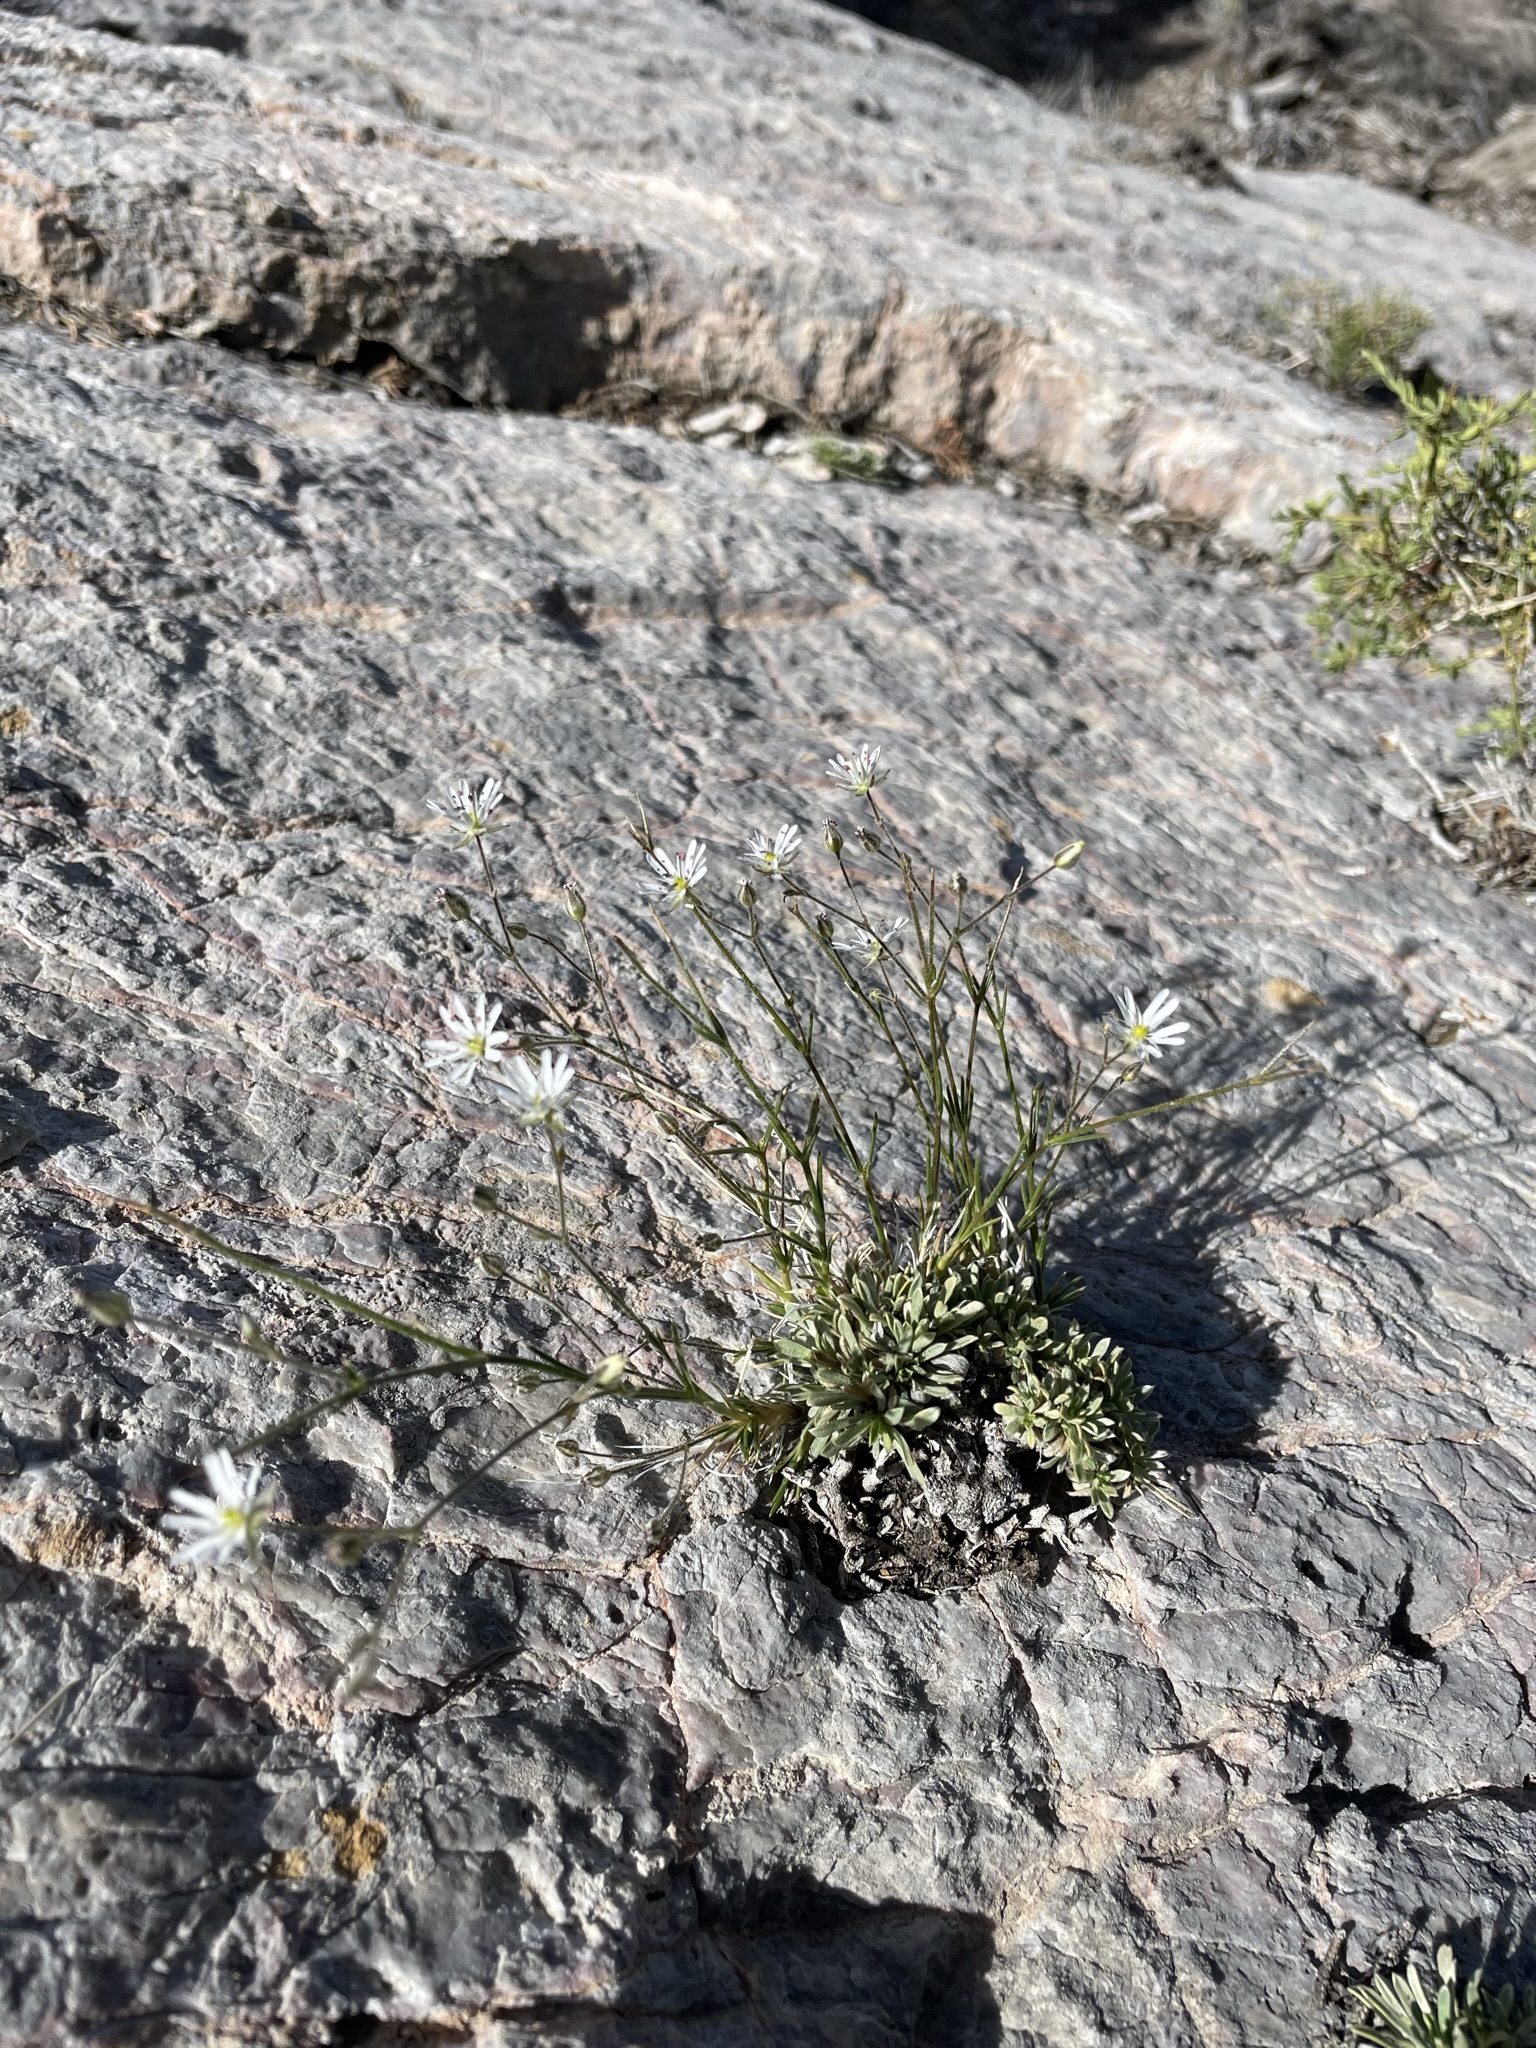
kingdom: Plantae
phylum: Tracheophyta
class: Magnoliopsida
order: Caryophyllales
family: Caryophyllaceae
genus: Eremogone
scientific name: Eremogone kingii
